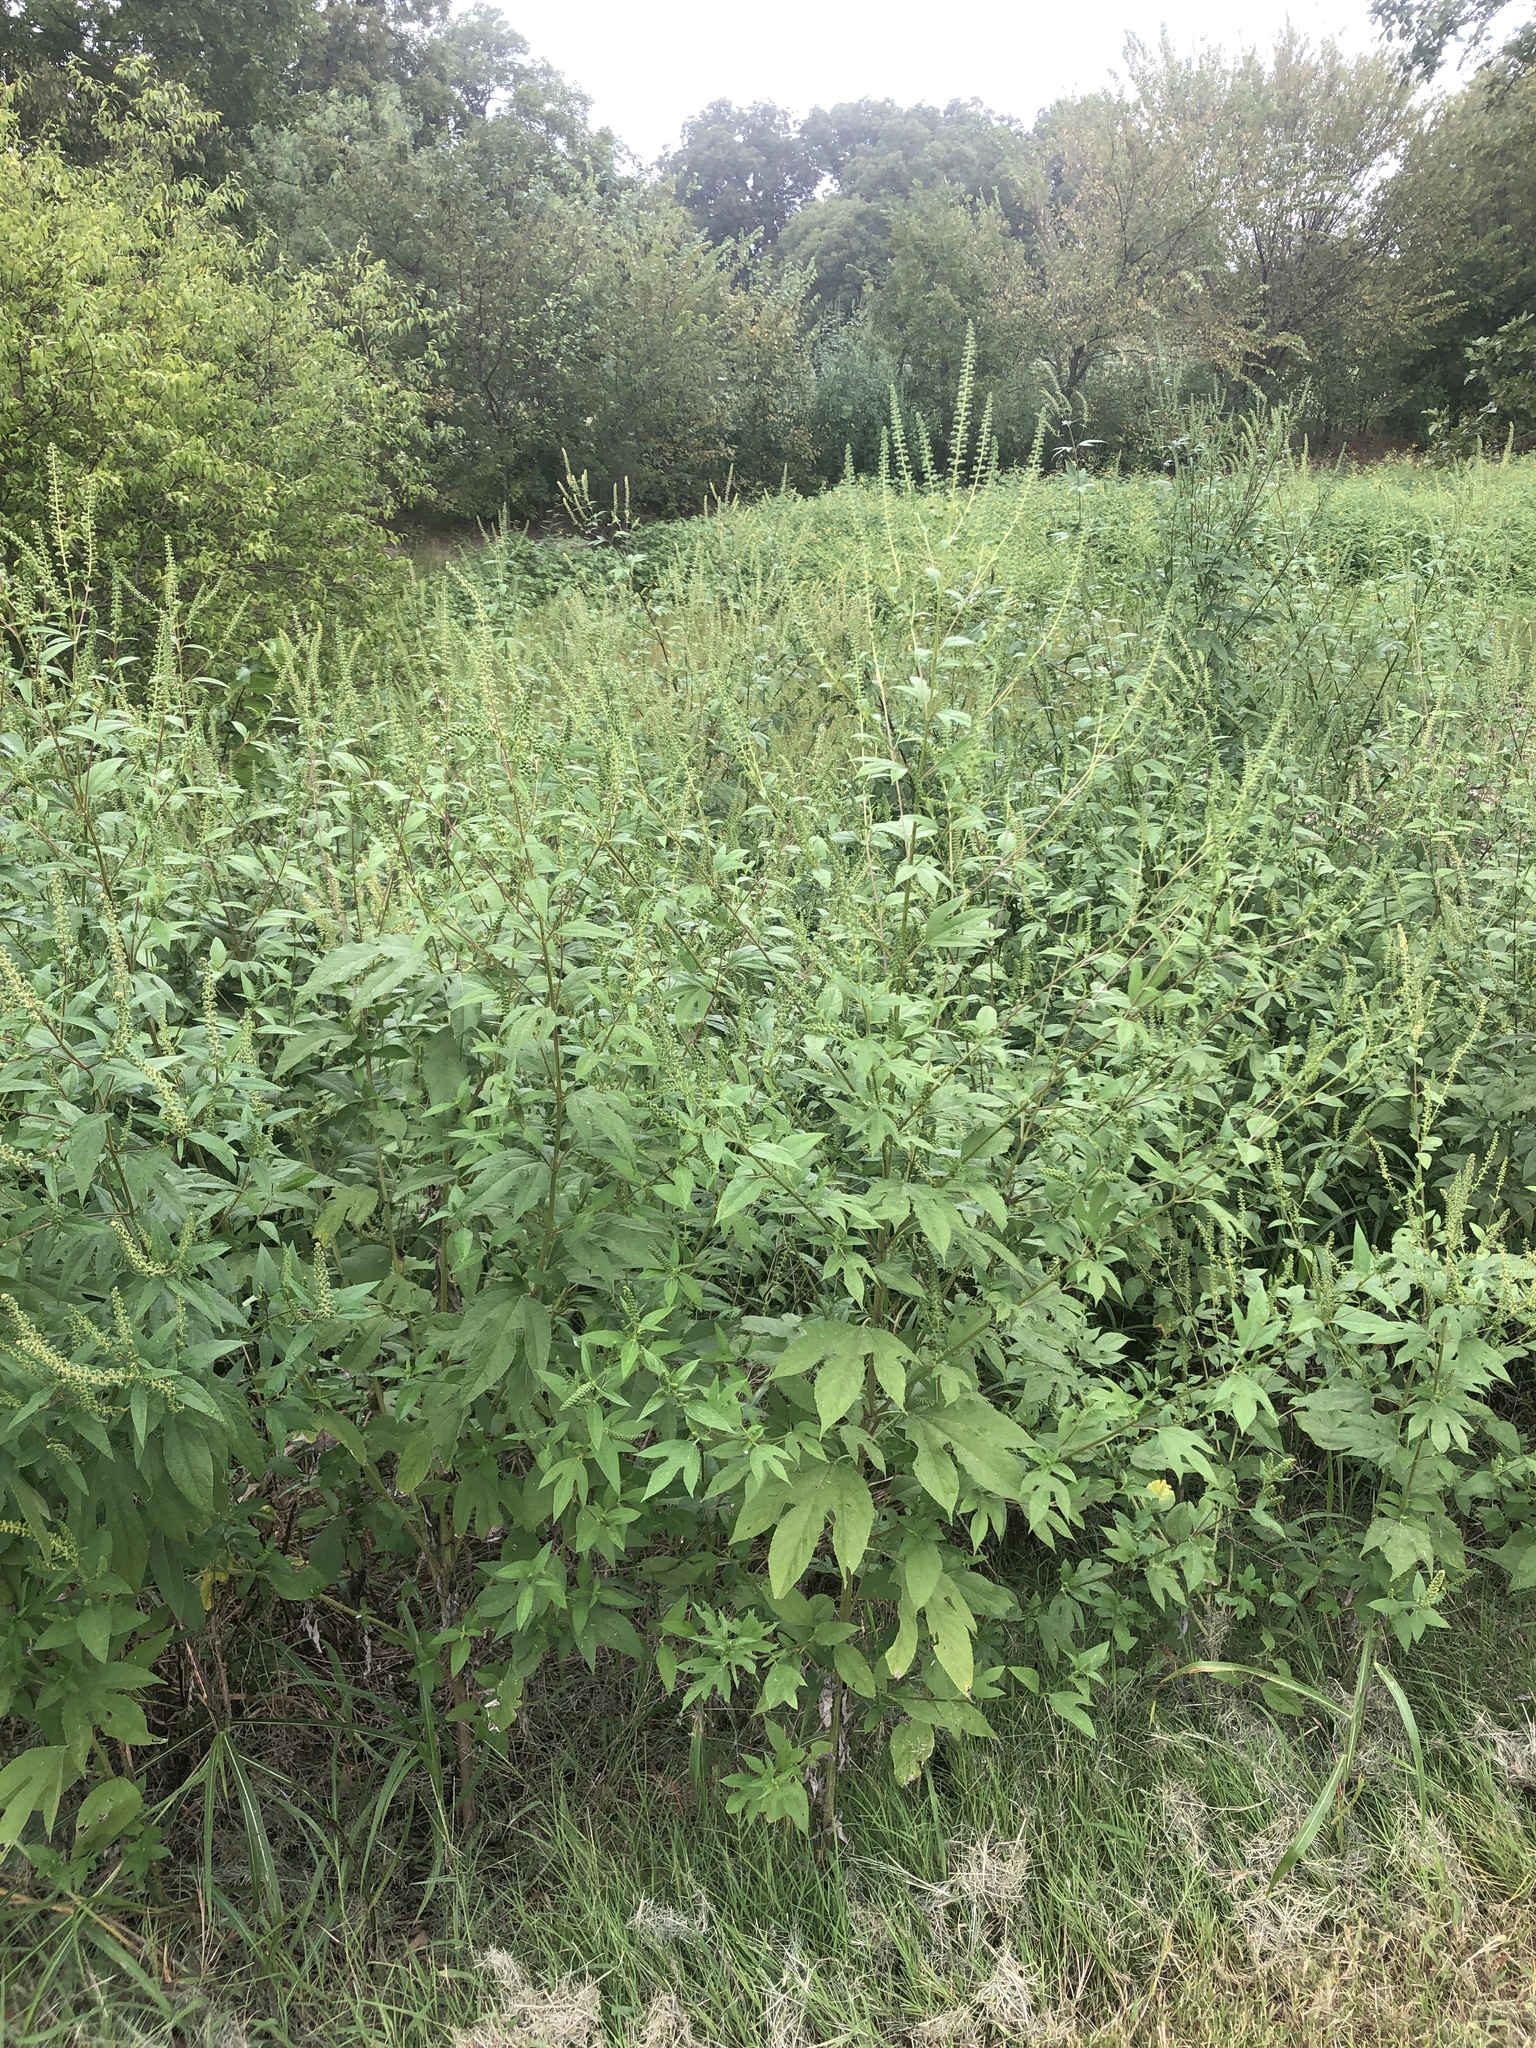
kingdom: Plantae
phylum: Tracheophyta
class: Magnoliopsida
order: Asterales
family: Asteraceae
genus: Ambrosia
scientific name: Ambrosia trifida
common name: Giant ragweed
